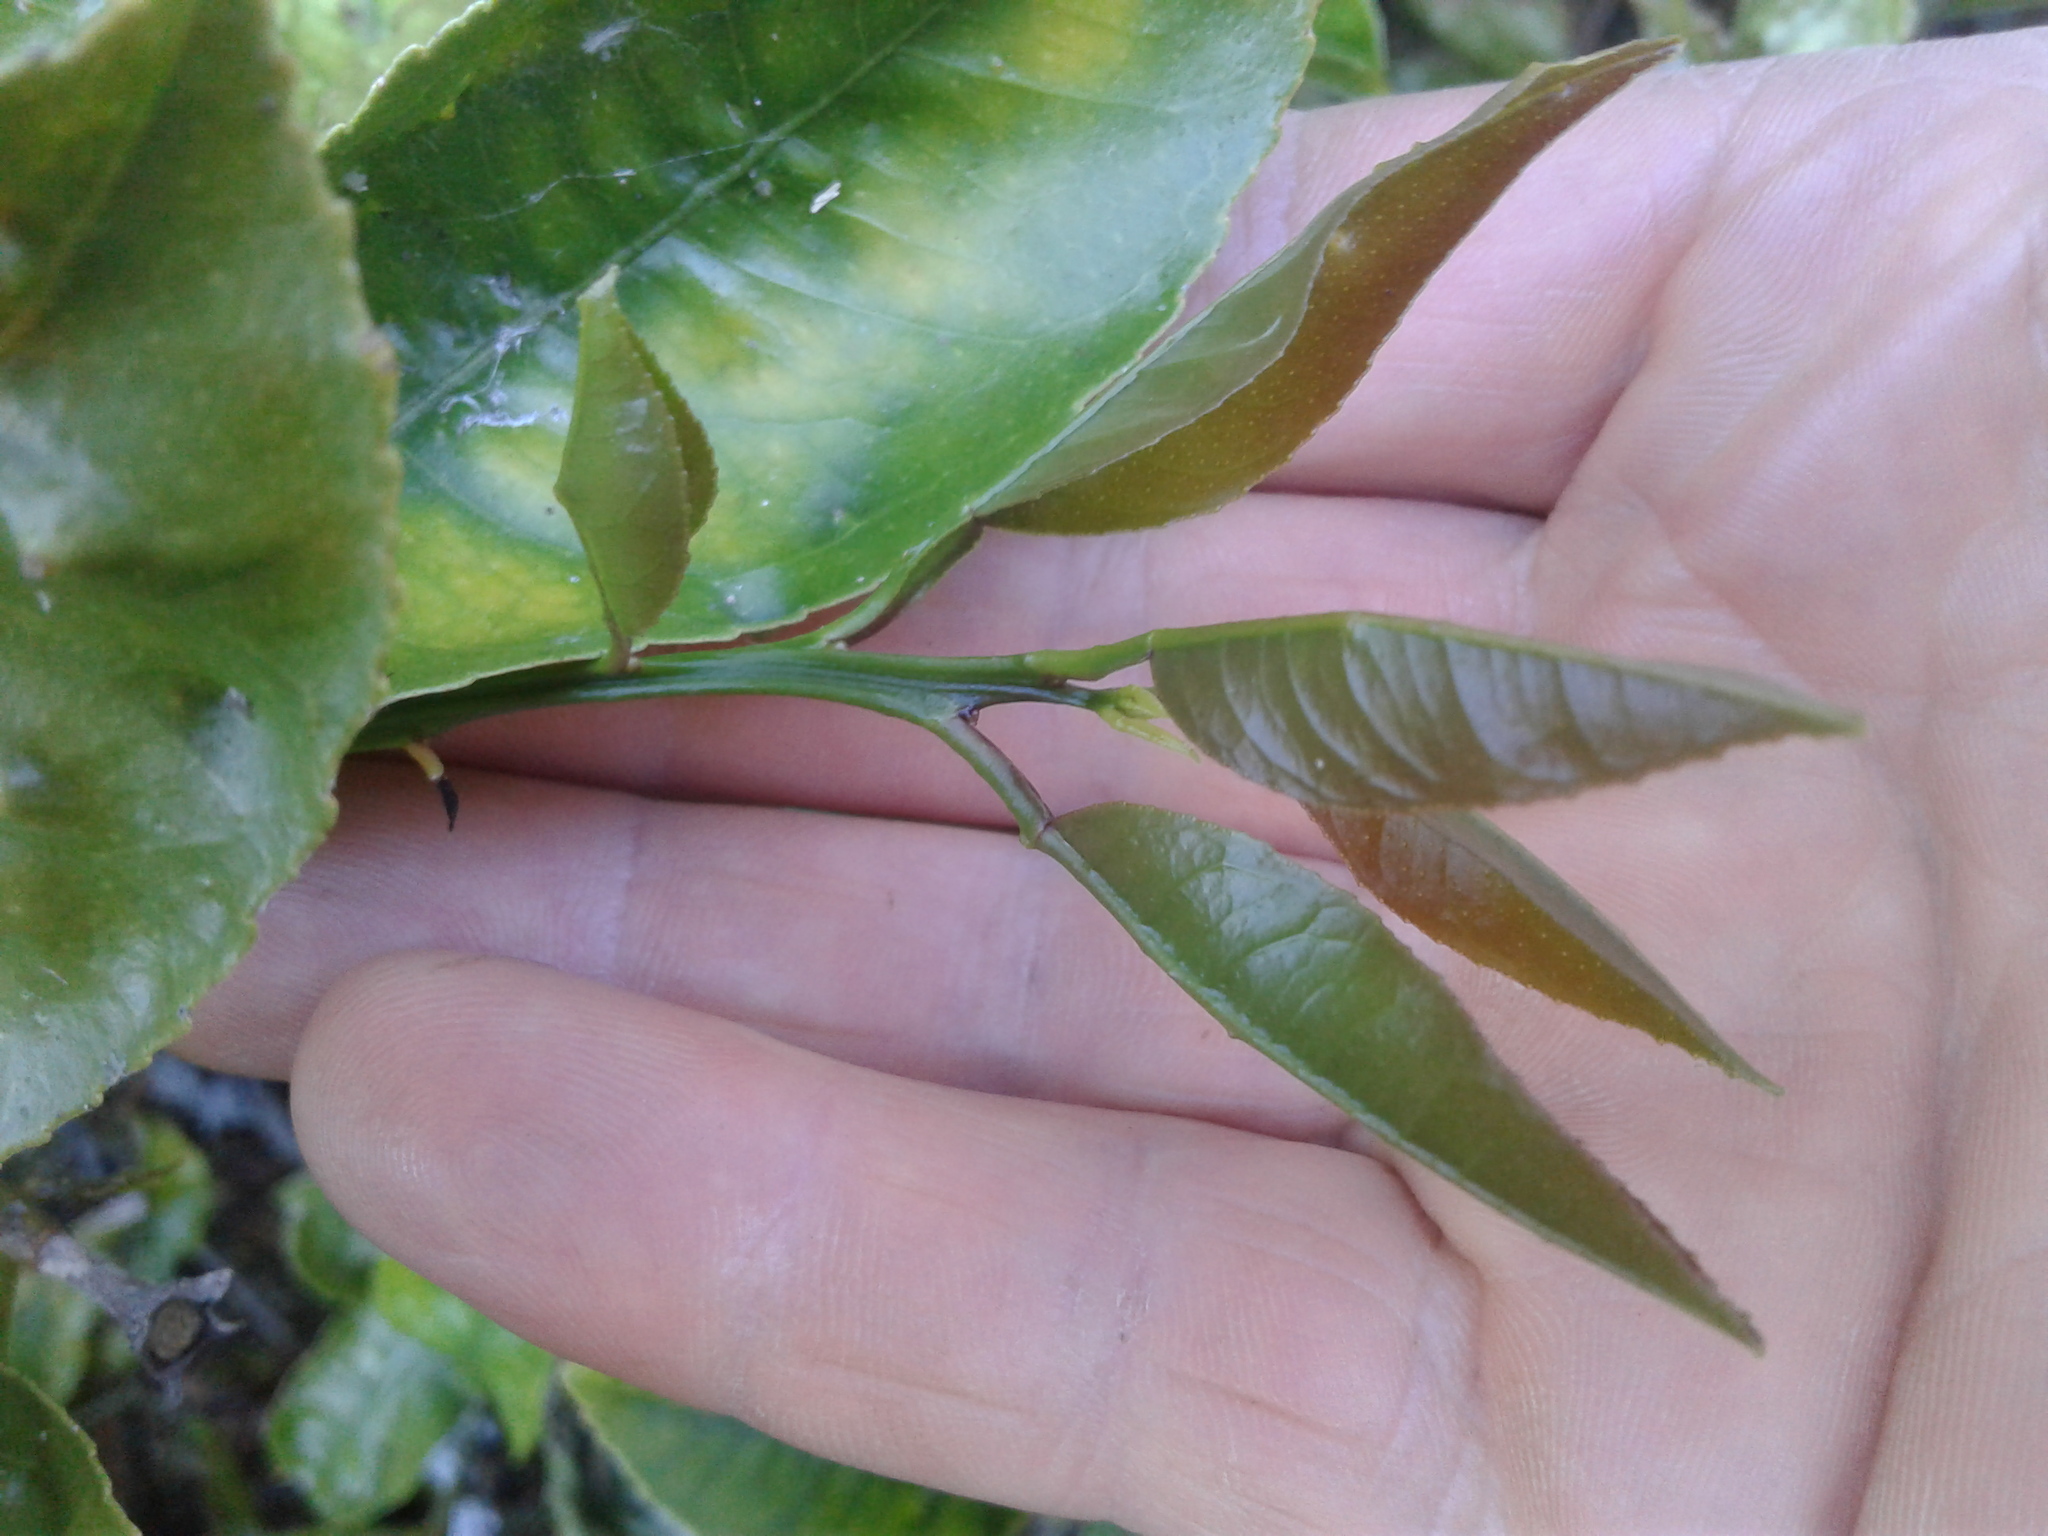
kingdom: Plantae
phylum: Tracheophyta
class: Magnoliopsida
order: Sapindales
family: Rutaceae
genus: Citrus
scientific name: Citrus limon
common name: Lemon
